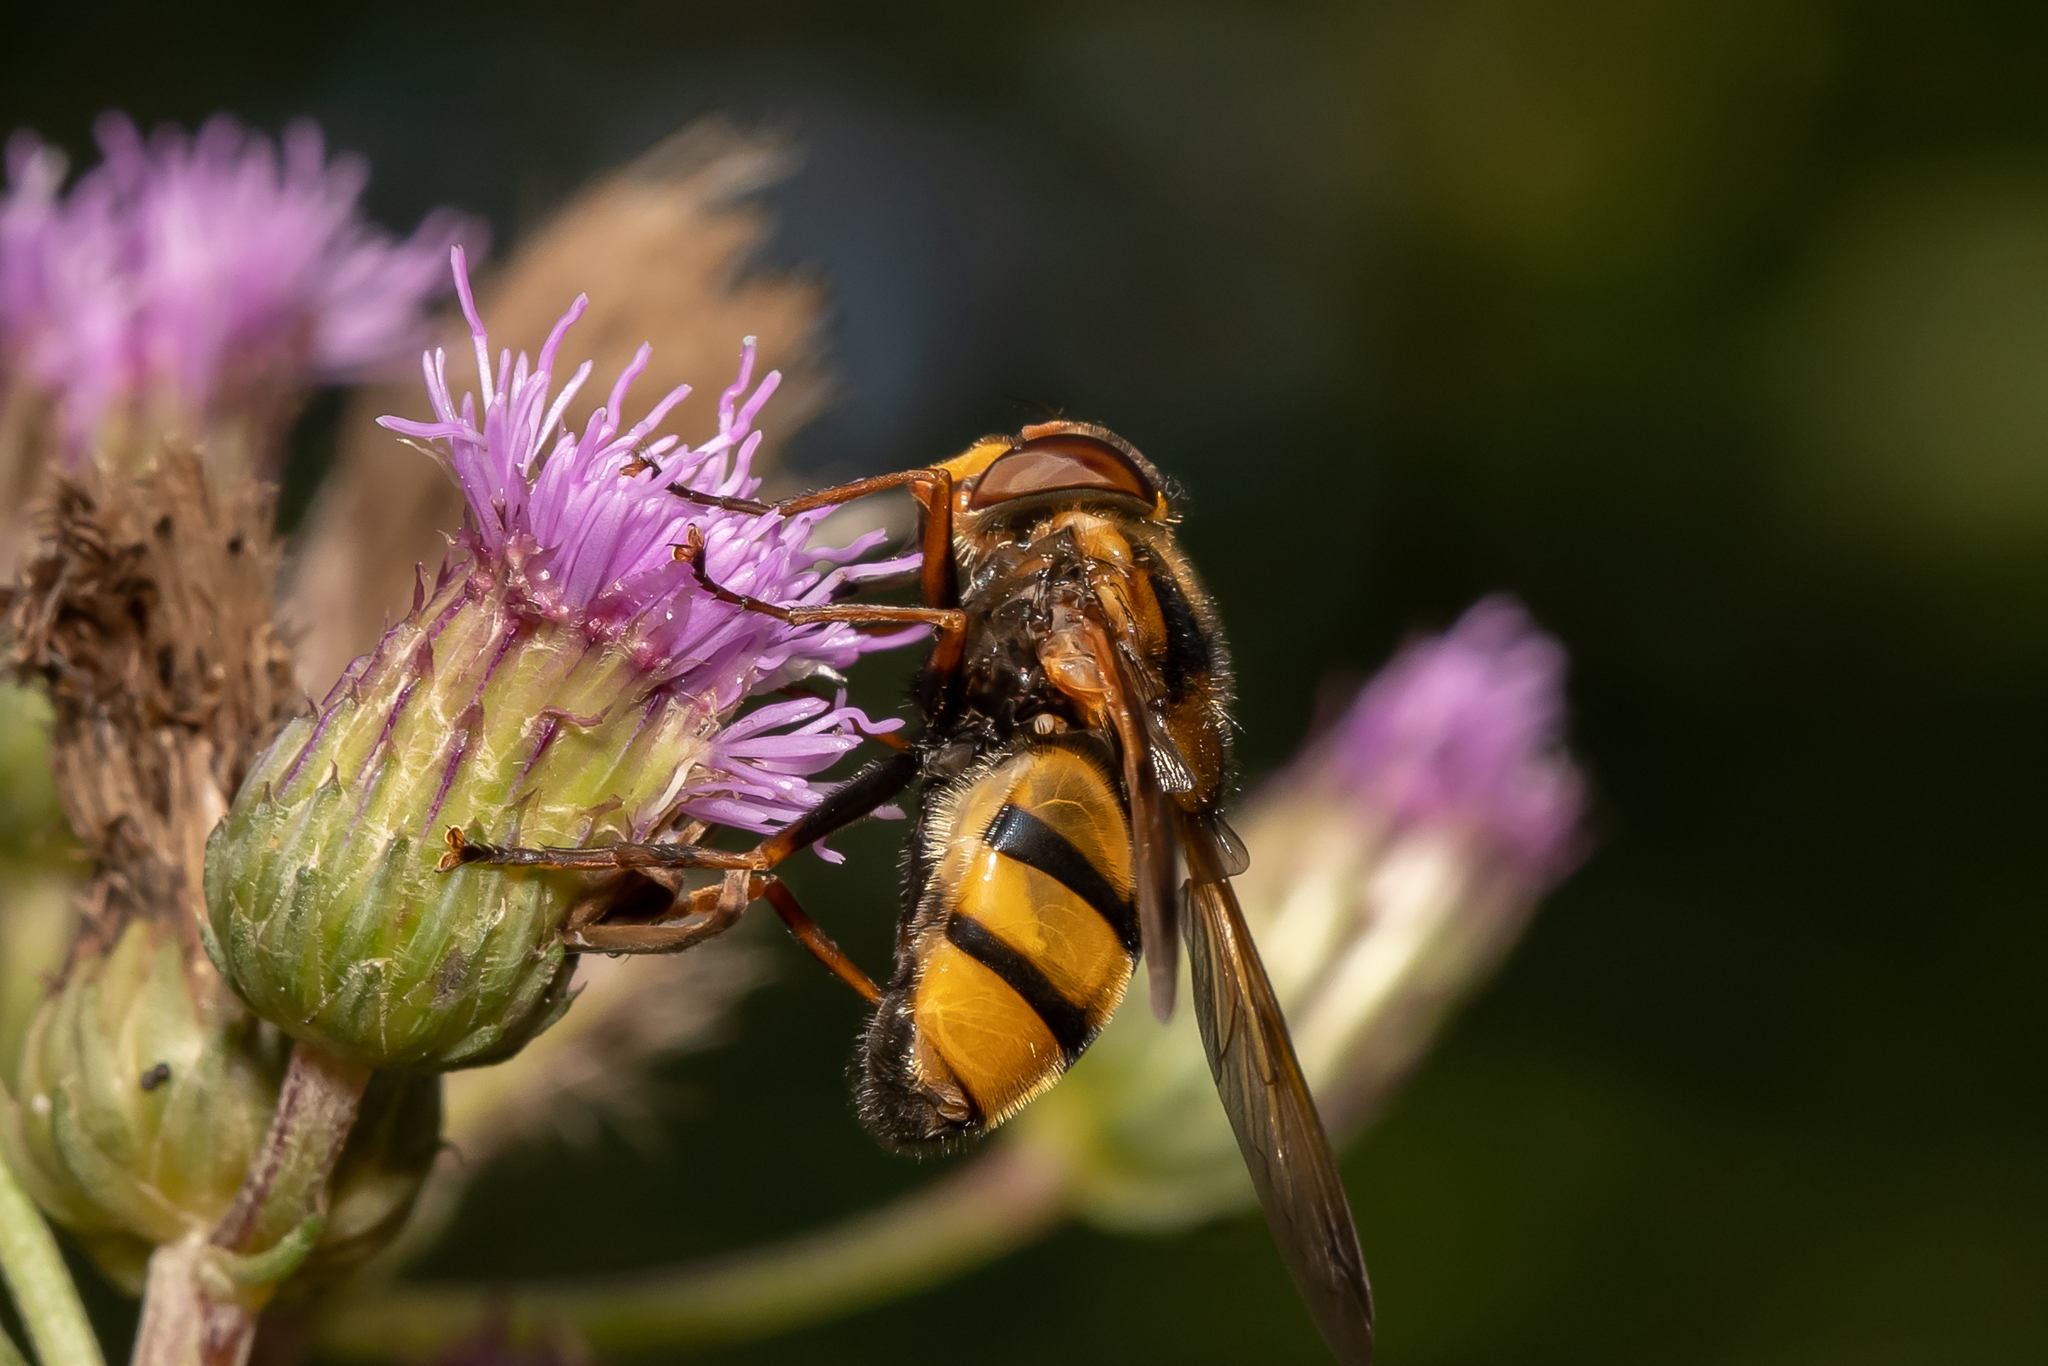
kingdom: Animalia
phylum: Arthropoda
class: Insecta
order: Diptera
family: Syrphidae
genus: Volucella
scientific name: Volucella inanis
